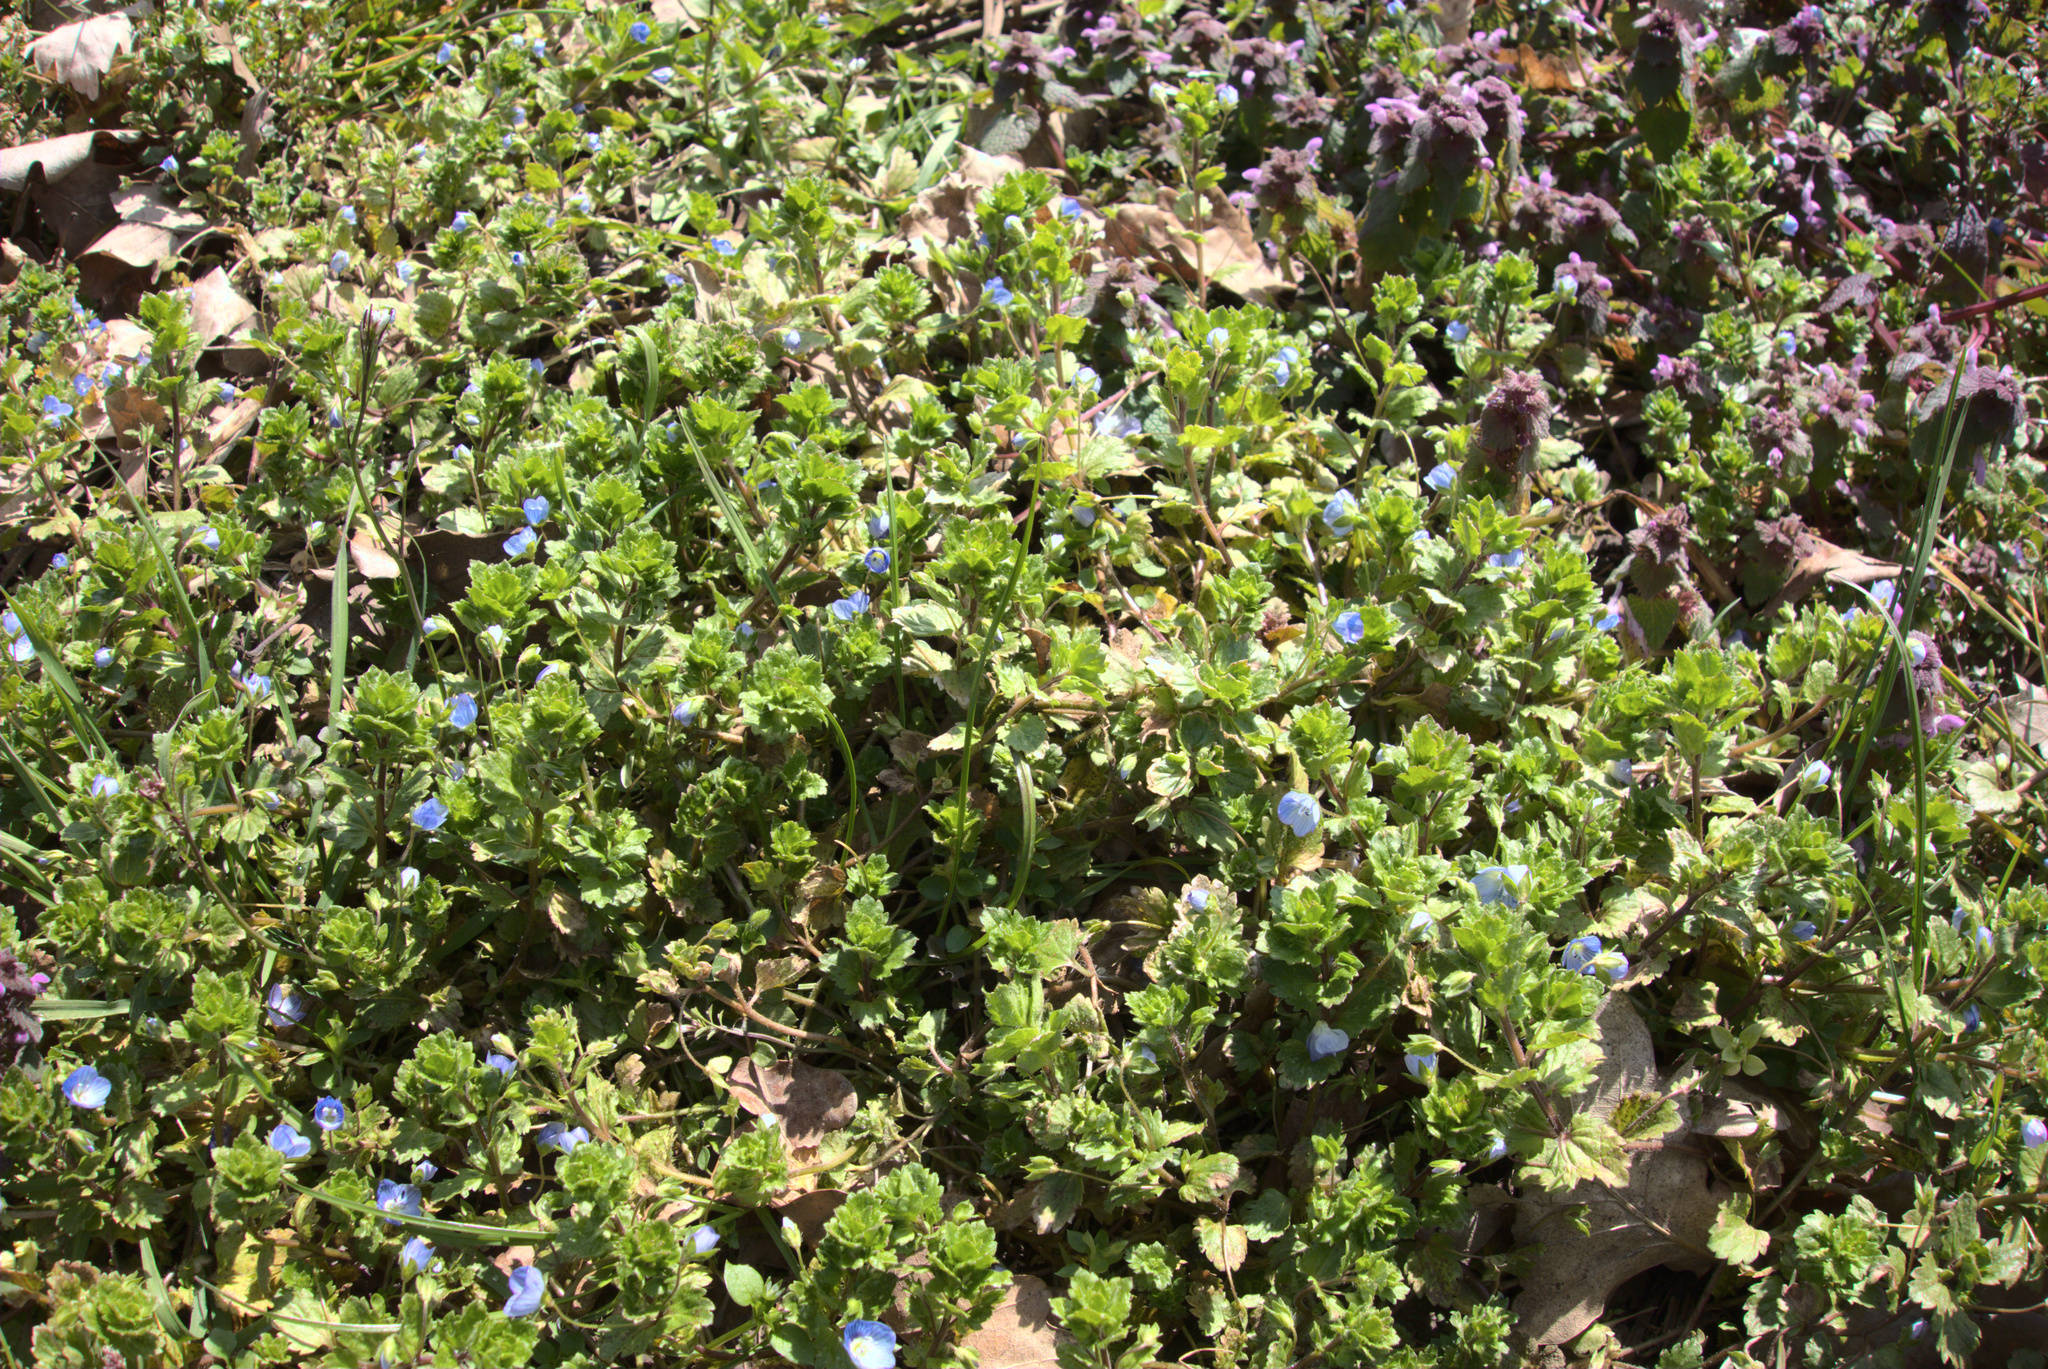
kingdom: Plantae
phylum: Tracheophyta
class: Magnoliopsida
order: Lamiales
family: Plantaginaceae
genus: Veronica
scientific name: Veronica persica
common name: Common field-speedwell
